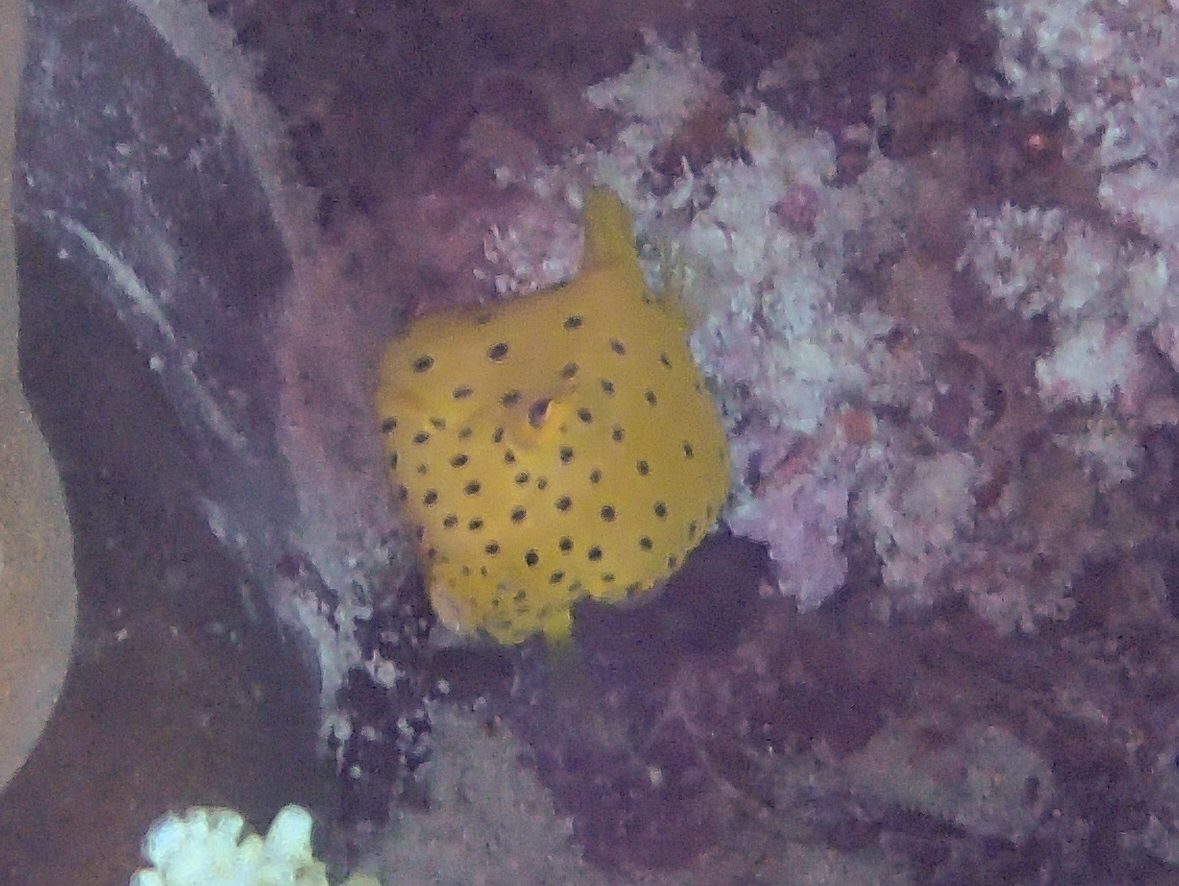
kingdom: Animalia
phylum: Chordata
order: Tetraodontiformes
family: Ostraciidae
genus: Ostracion
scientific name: Ostracion cubicus
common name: Cube trunkfish
